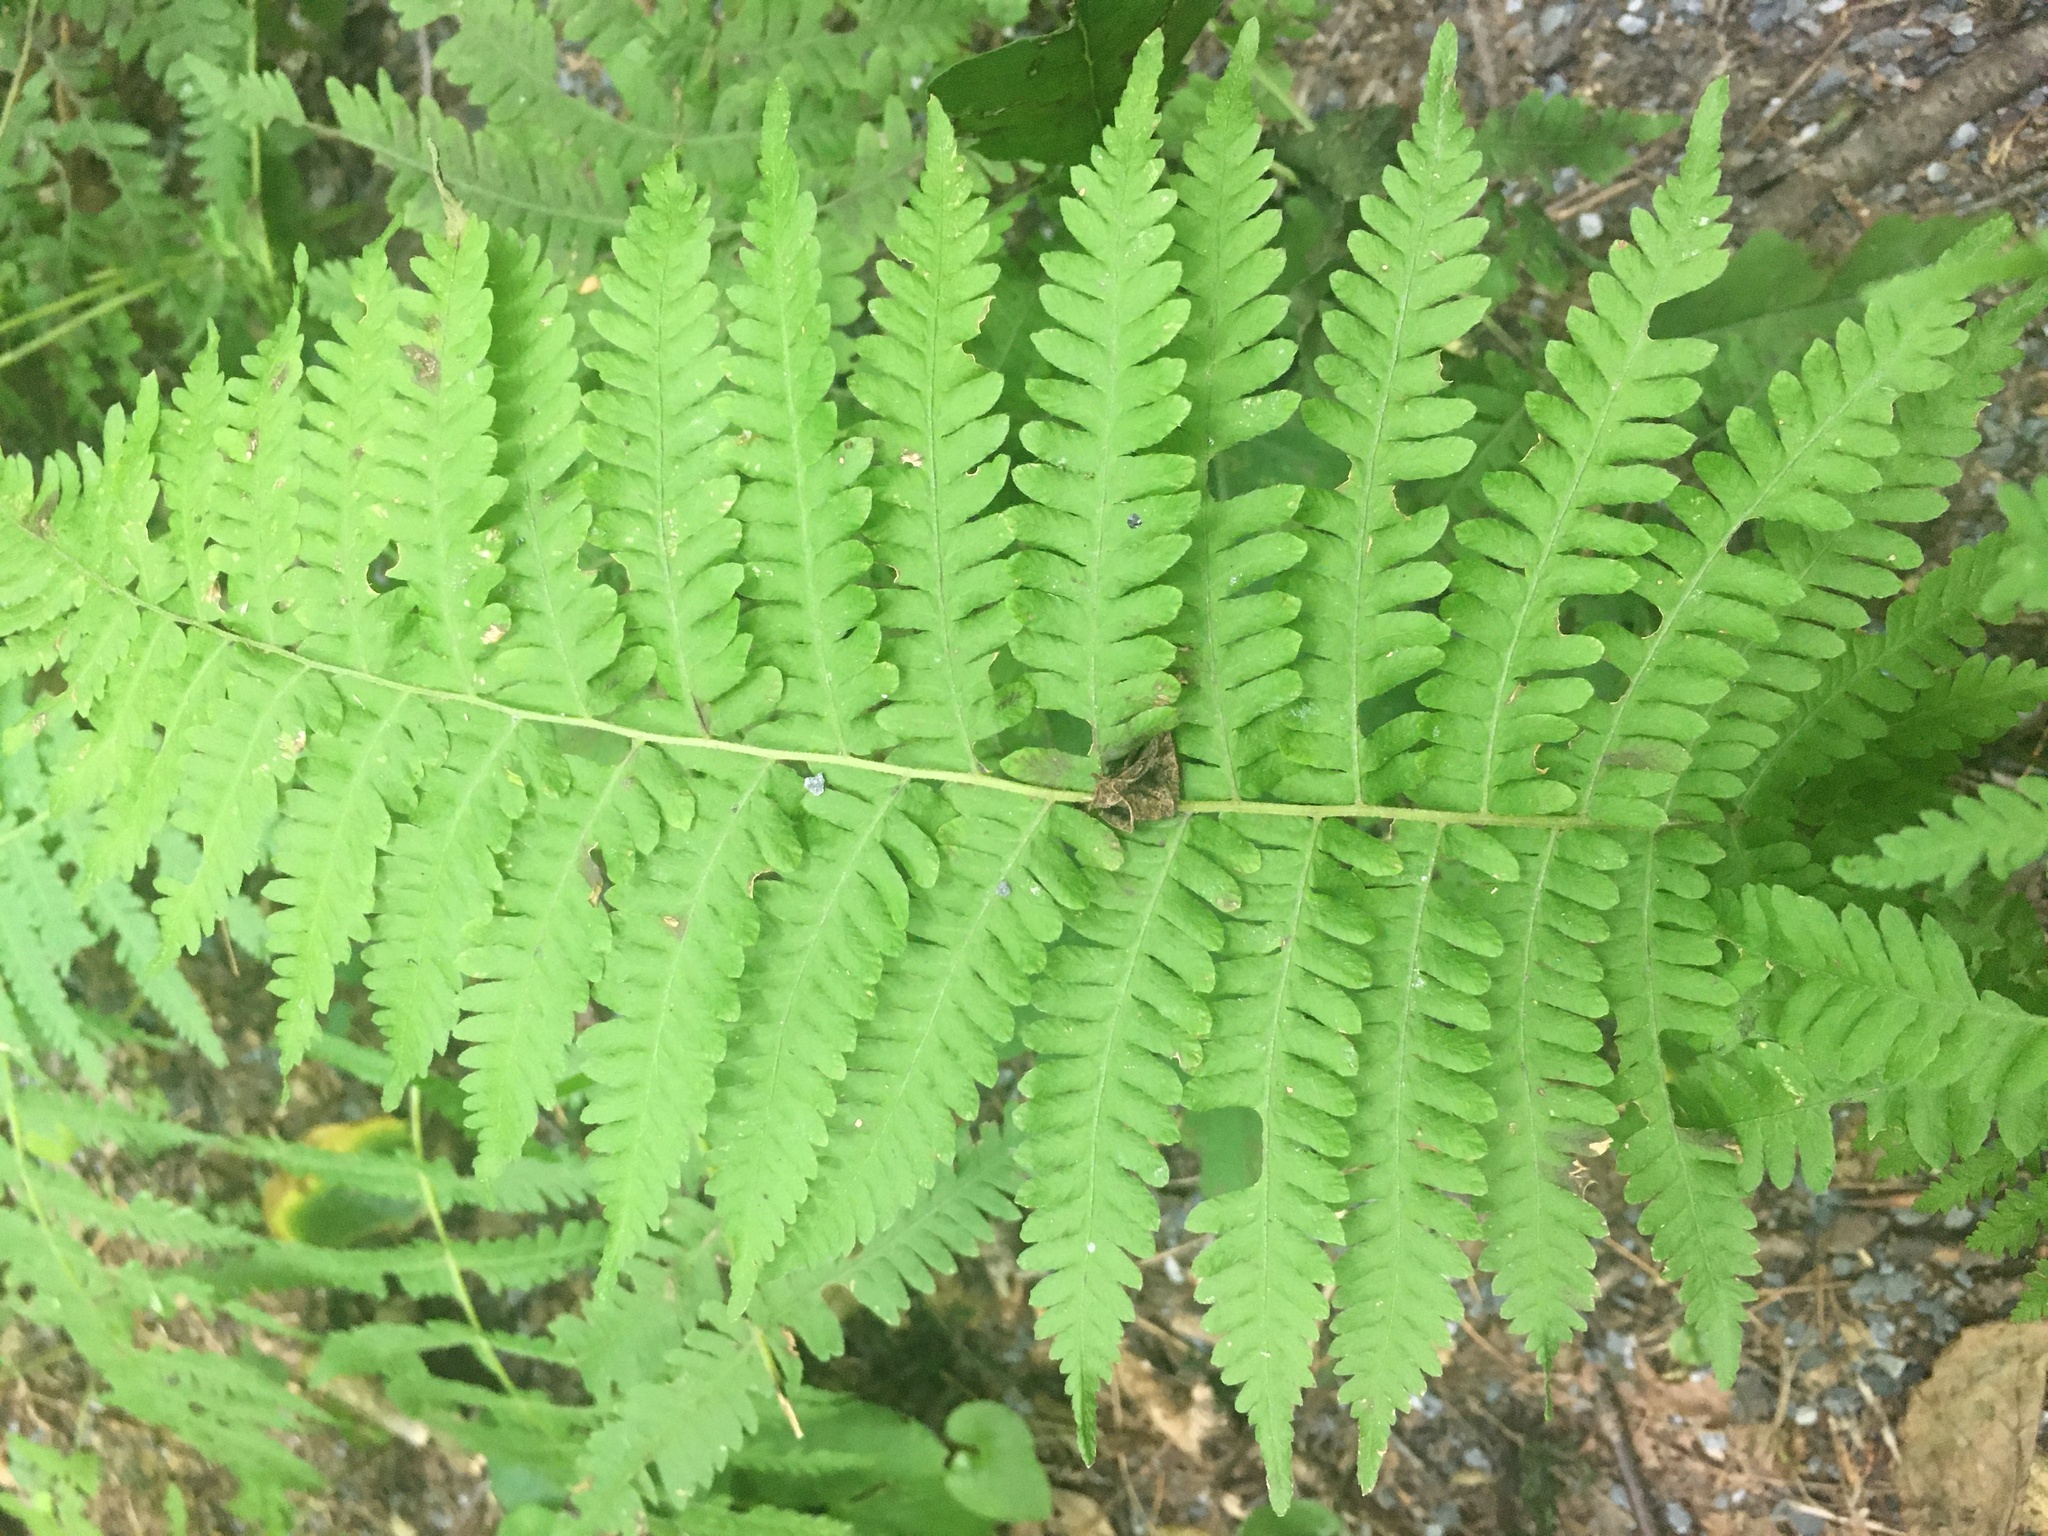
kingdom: Plantae
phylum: Tracheophyta
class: Polypodiopsida
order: Polypodiales
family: Thelypteridaceae
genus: Amauropelta
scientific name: Amauropelta noveboracensis
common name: New york fern
